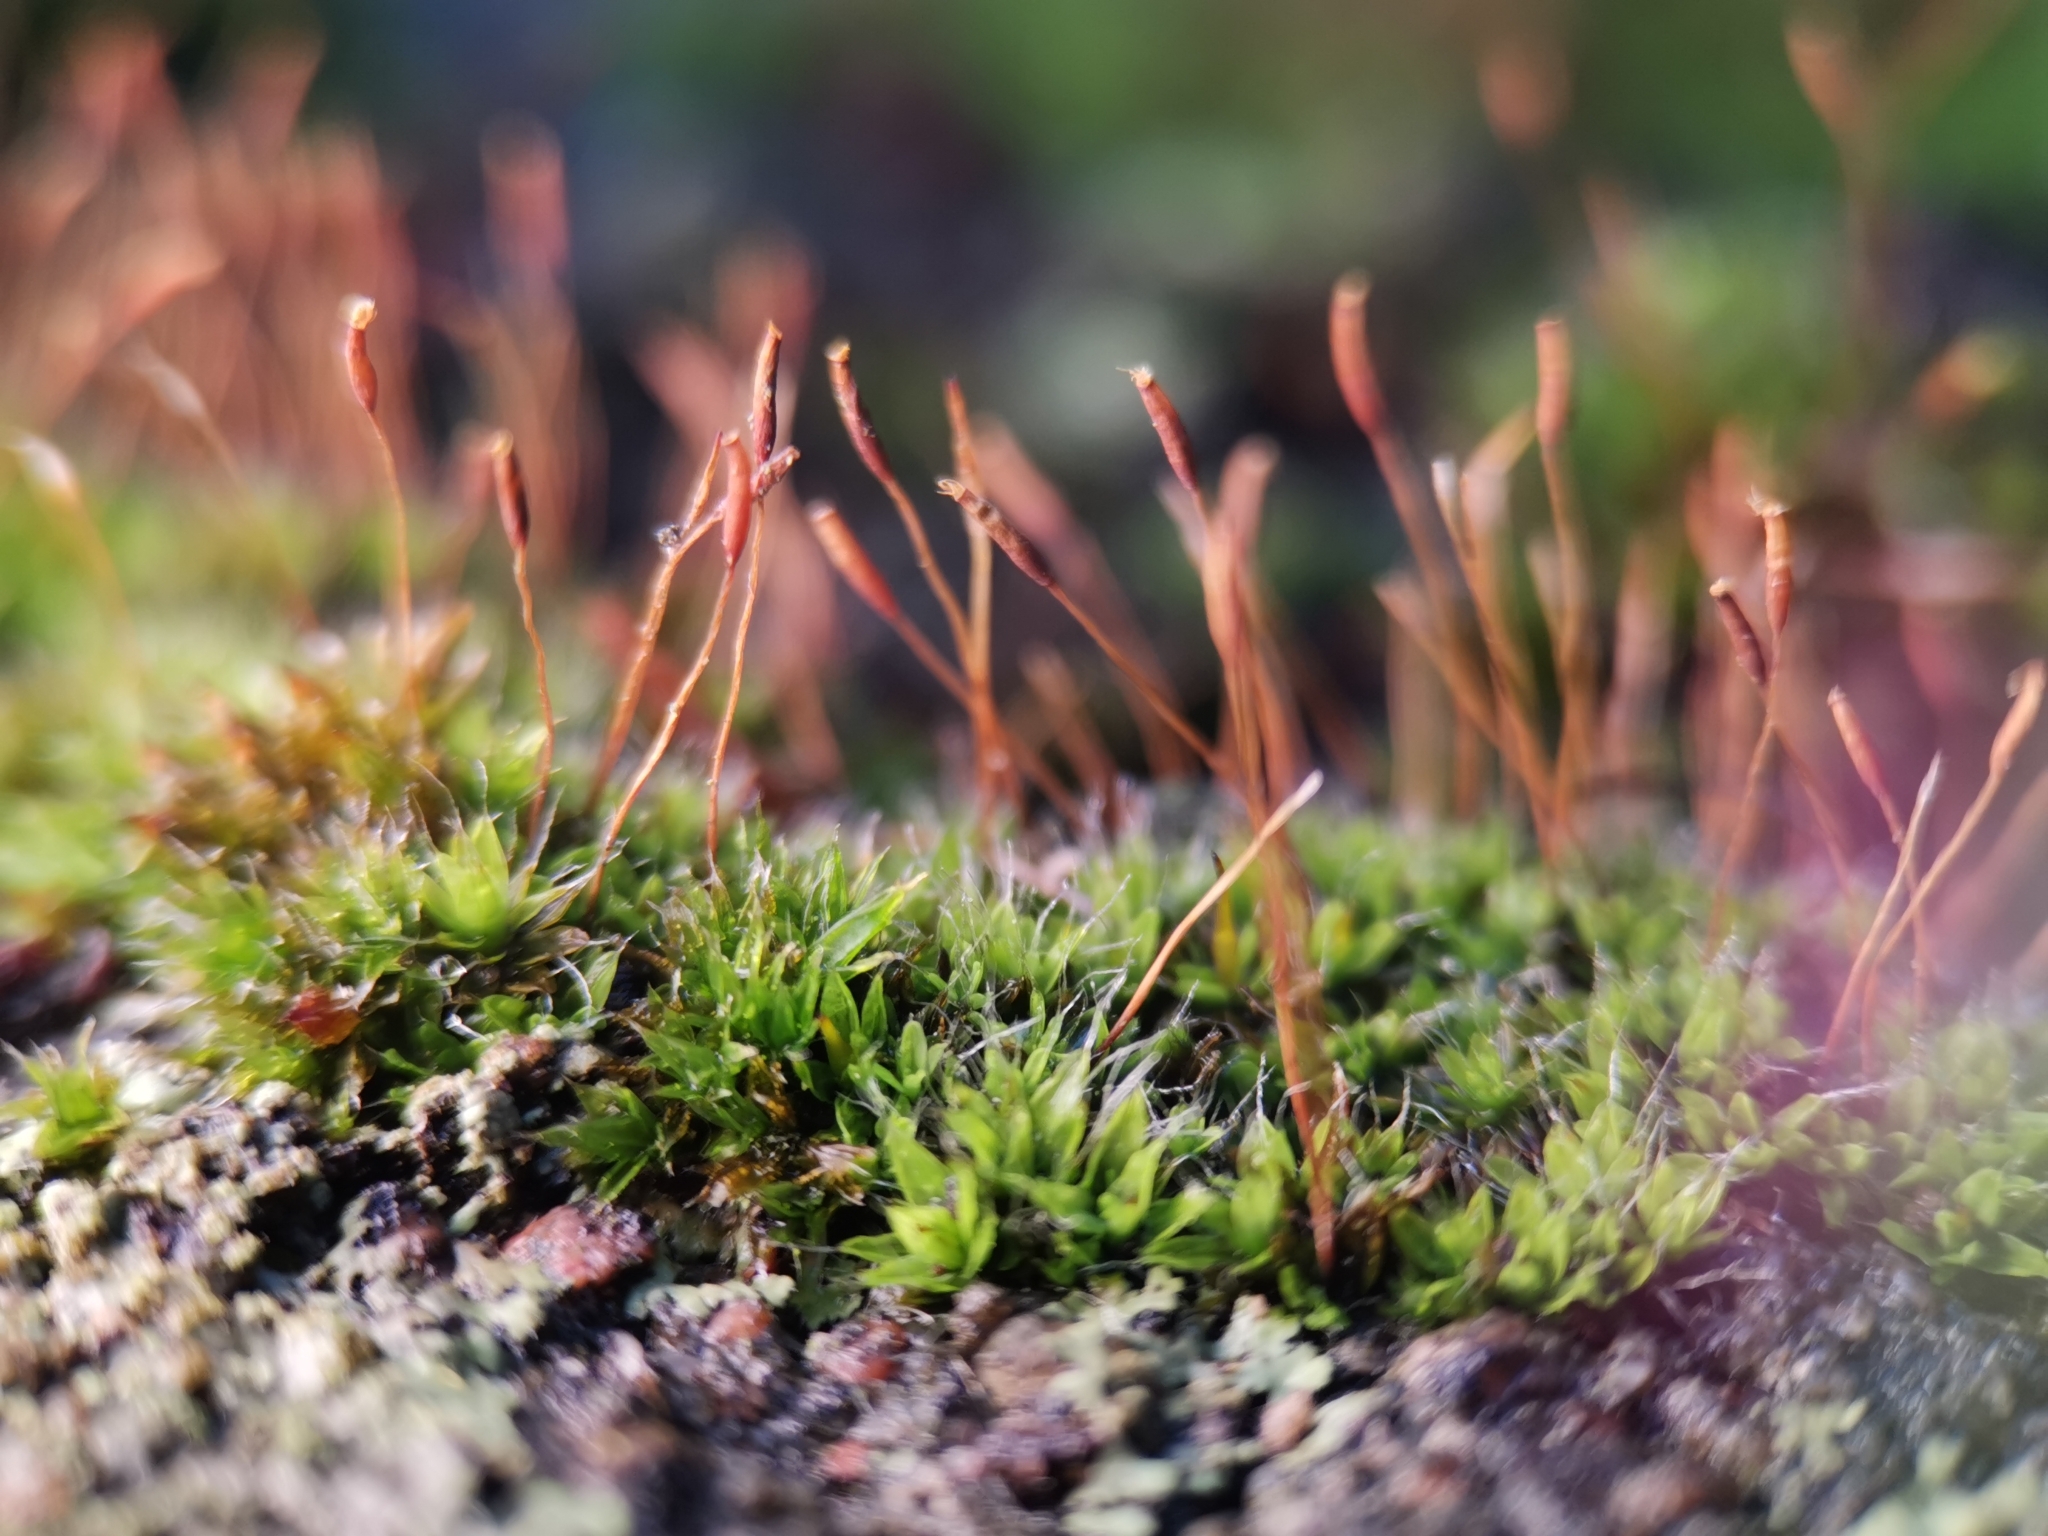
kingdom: Plantae
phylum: Bryophyta
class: Bryopsida
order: Pottiales
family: Pottiaceae
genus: Tortula
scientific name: Tortula muralis
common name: Wall screw-moss
